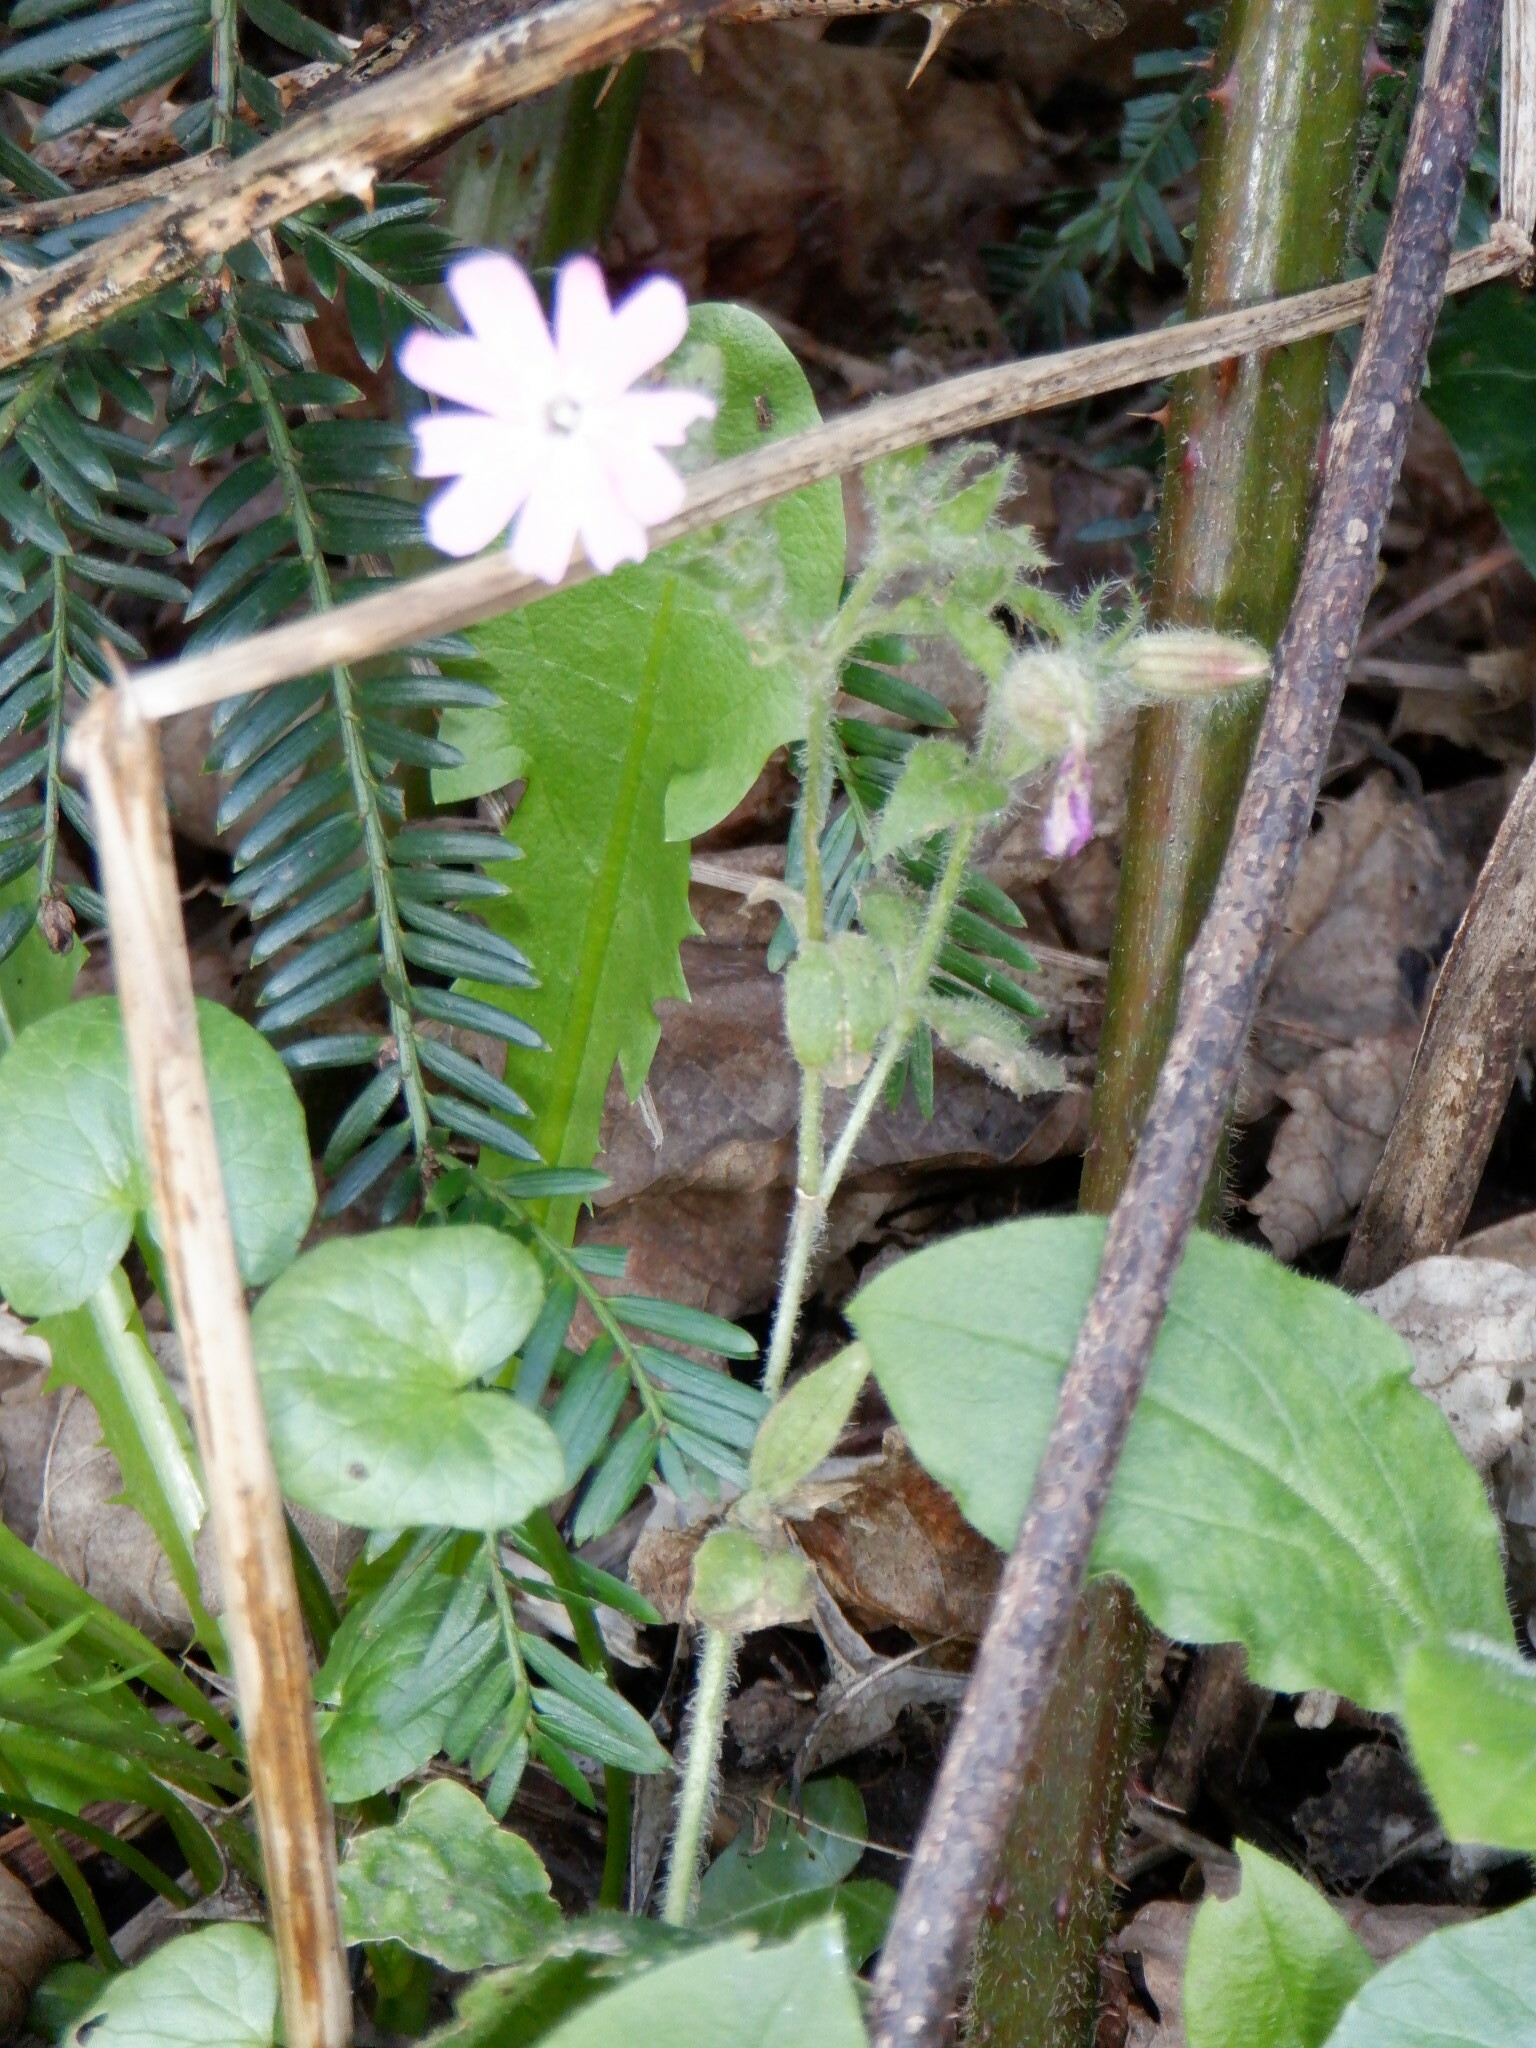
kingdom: Plantae
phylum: Tracheophyta
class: Magnoliopsida
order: Caryophyllales
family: Caryophyllaceae
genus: Silene
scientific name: Silene dioica
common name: Red campion
